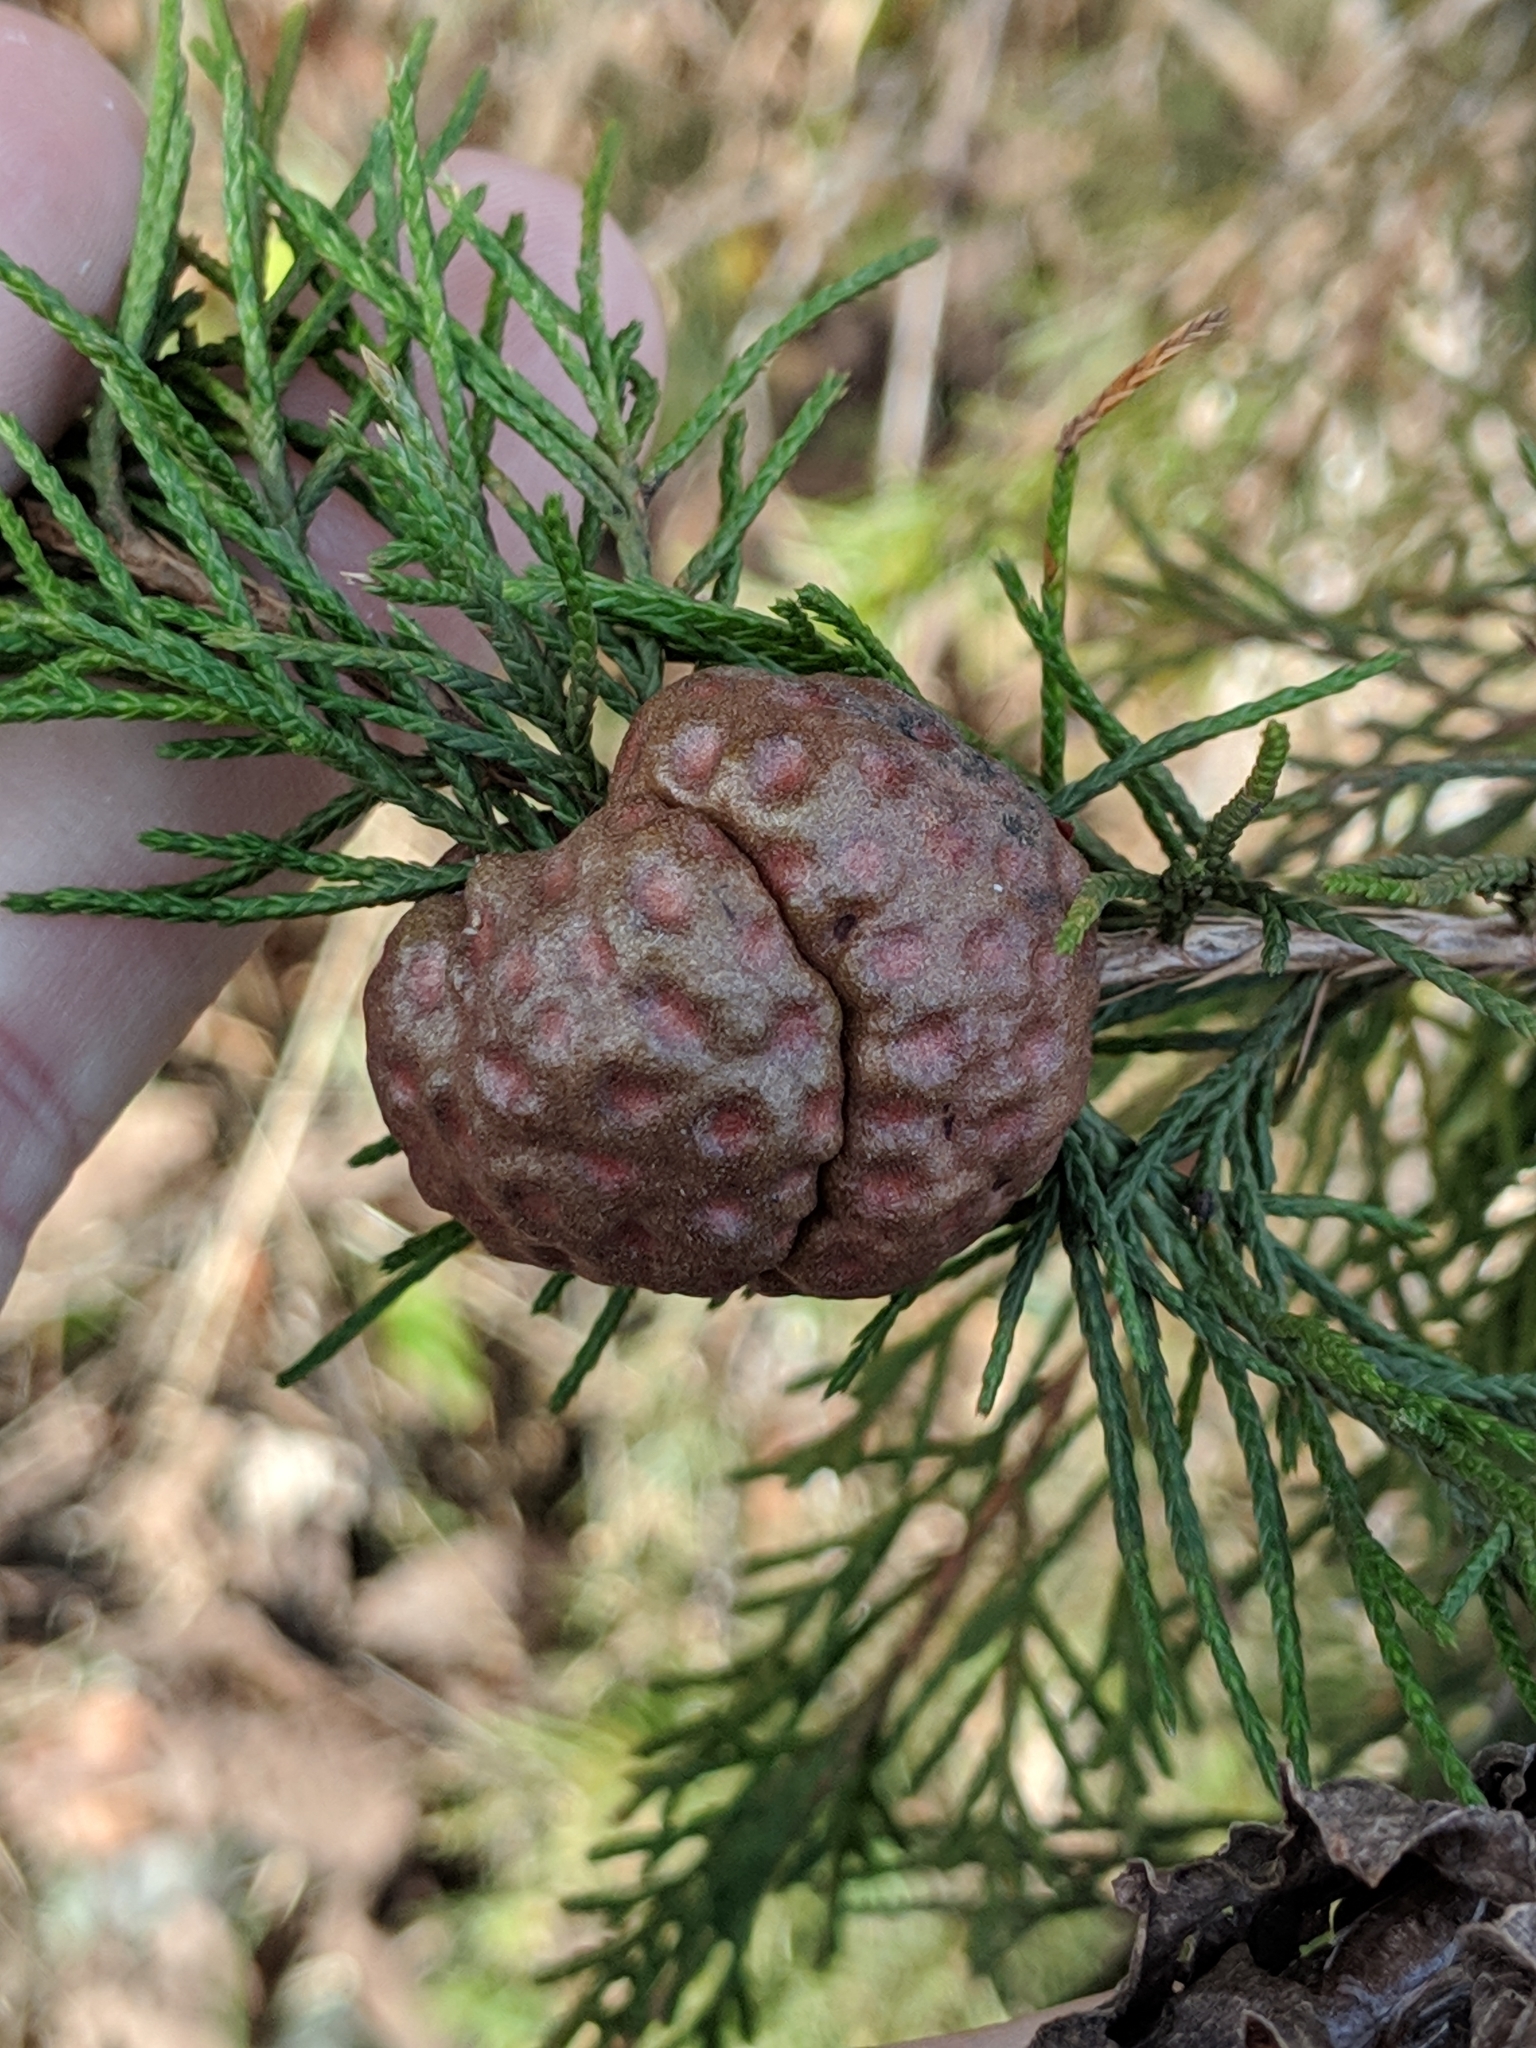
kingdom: Fungi
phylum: Basidiomycota
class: Pucciniomycetes
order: Pucciniales
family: Gymnosporangiaceae
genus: Gymnosporangium
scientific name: Gymnosporangium juniperi-virginianae
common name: Juniper-apple rust
